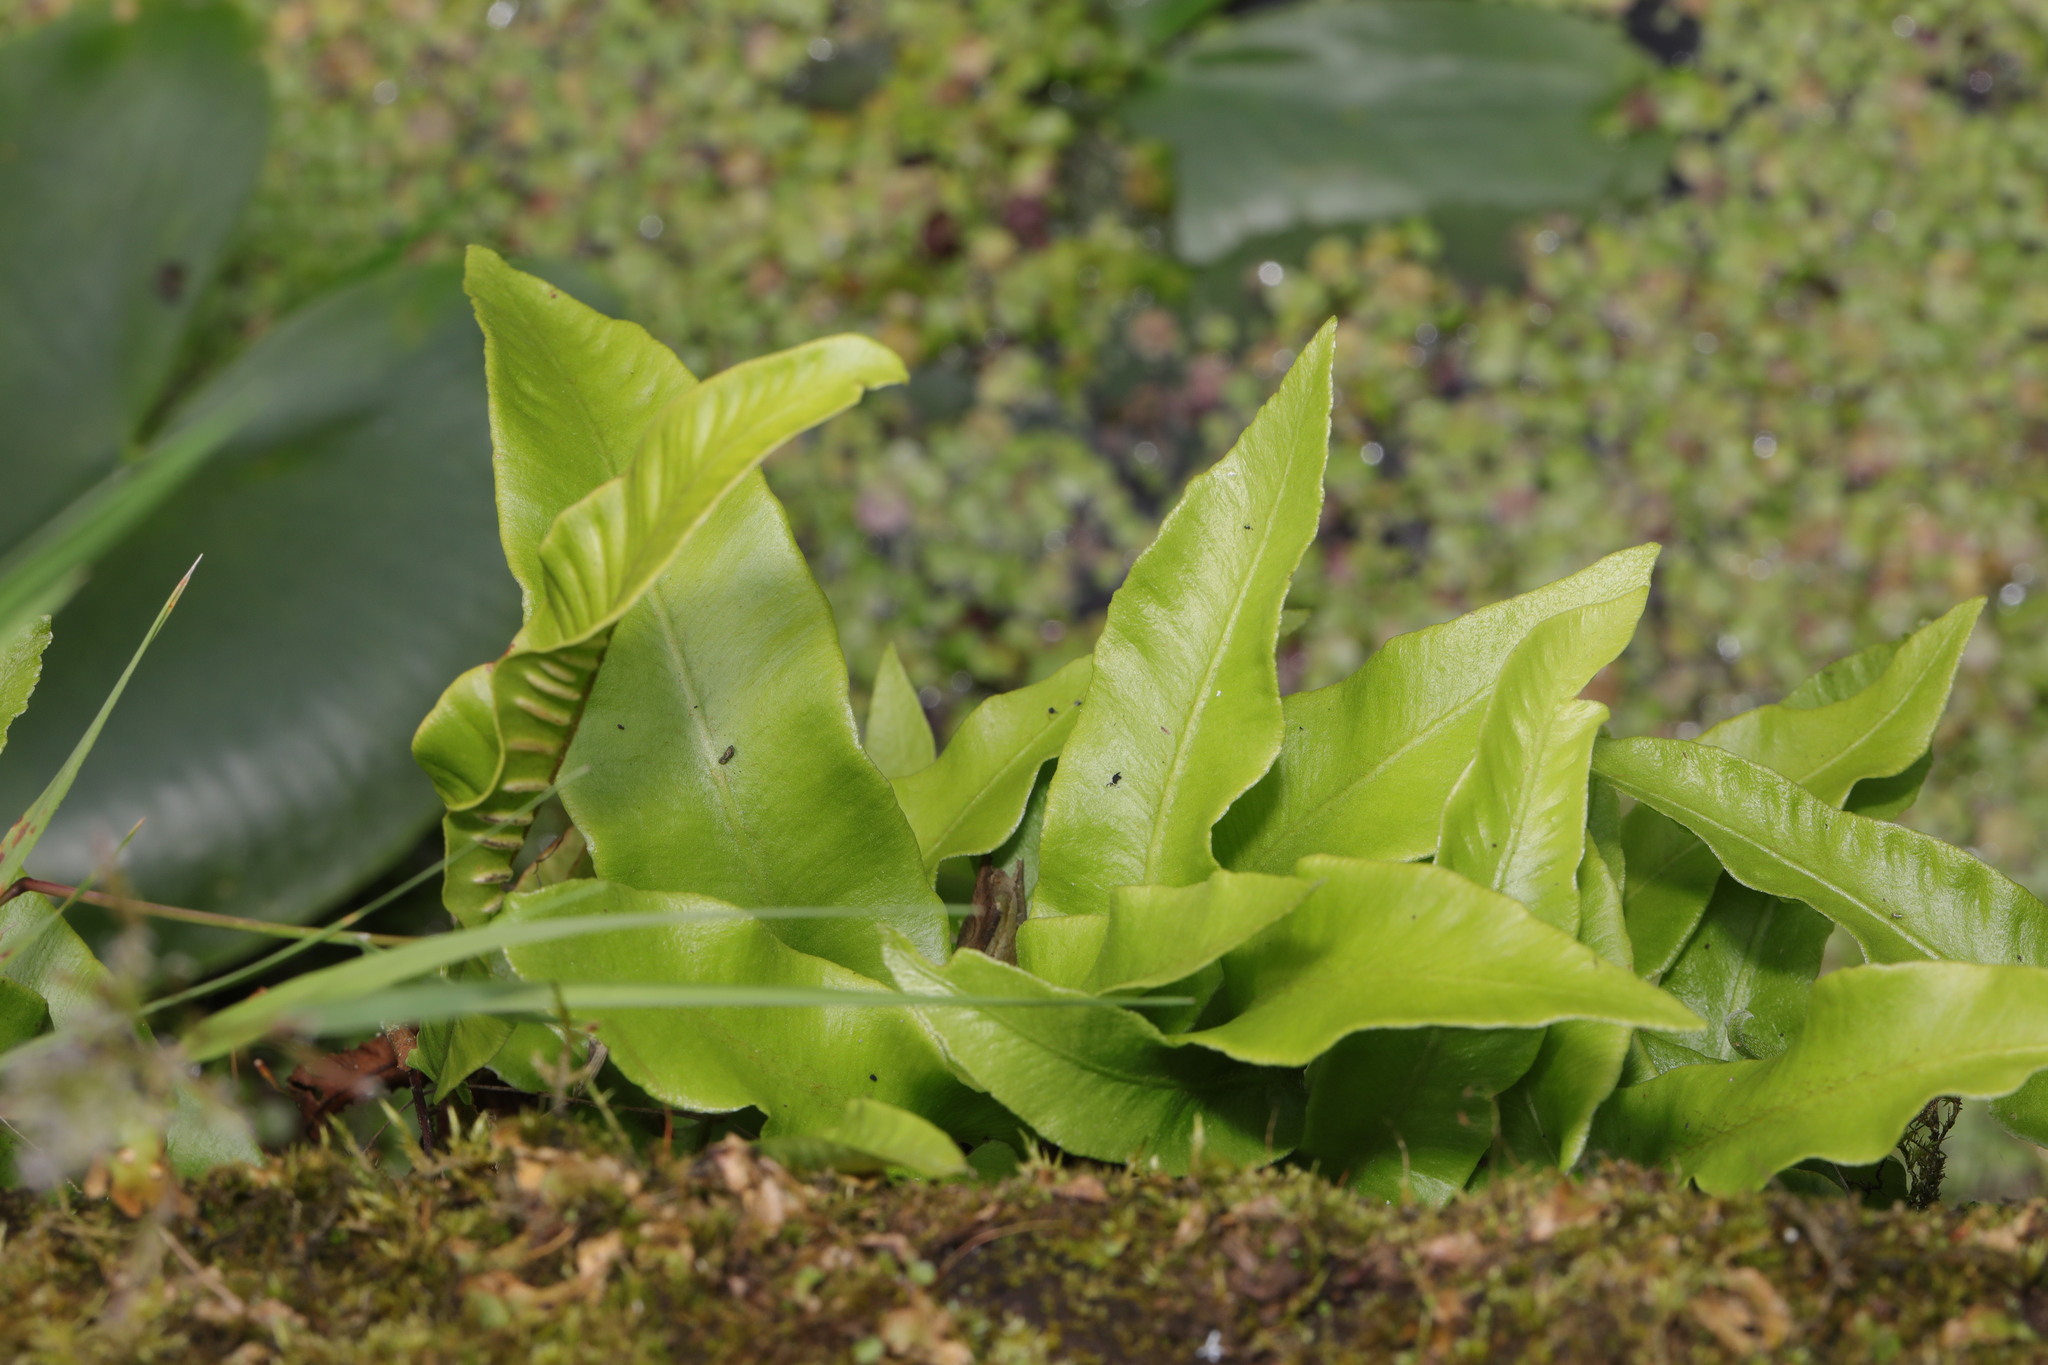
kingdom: Plantae
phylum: Tracheophyta
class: Polypodiopsida
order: Polypodiales
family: Aspleniaceae
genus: Asplenium
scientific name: Asplenium scolopendrium
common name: Hart's-tongue fern
